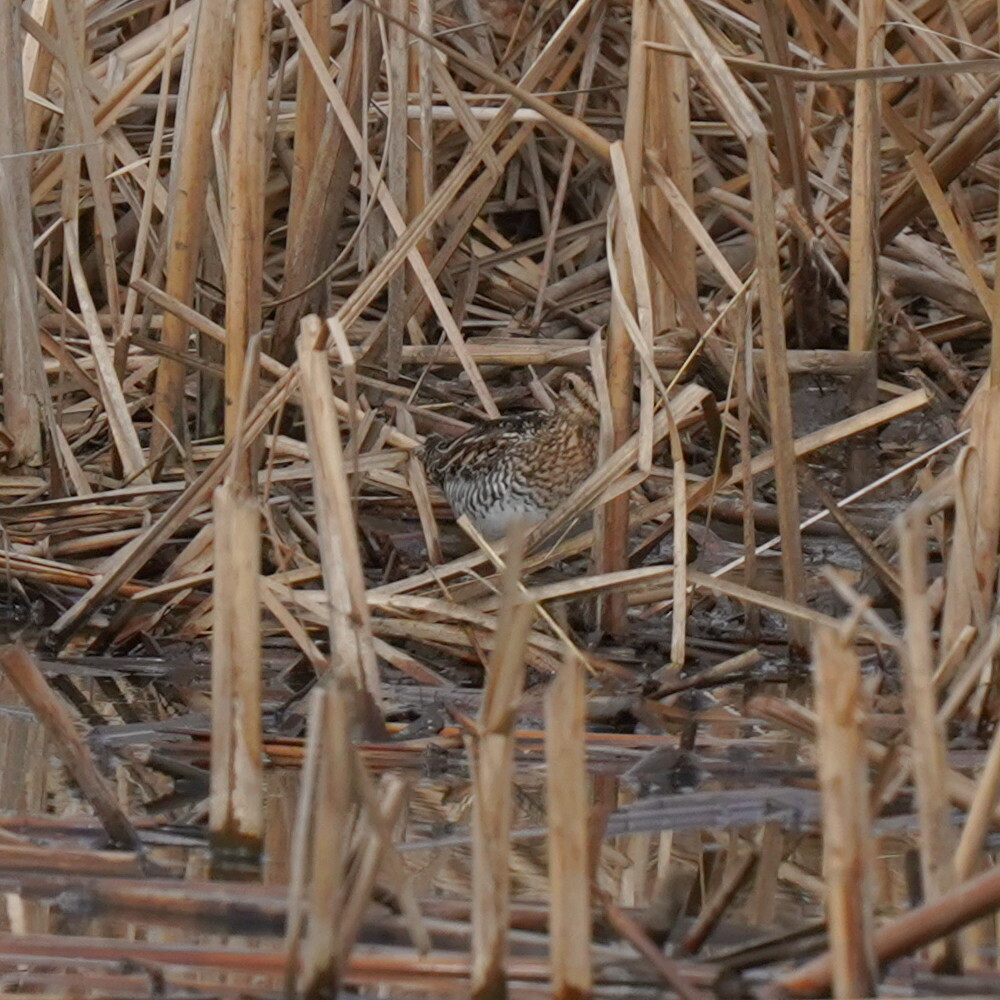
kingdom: Animalia
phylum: Chordata
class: Aves
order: Charadriiformes
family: Scolopacidae
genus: Gallinago
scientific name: Gallinago delicata
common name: Wilson's snipe
